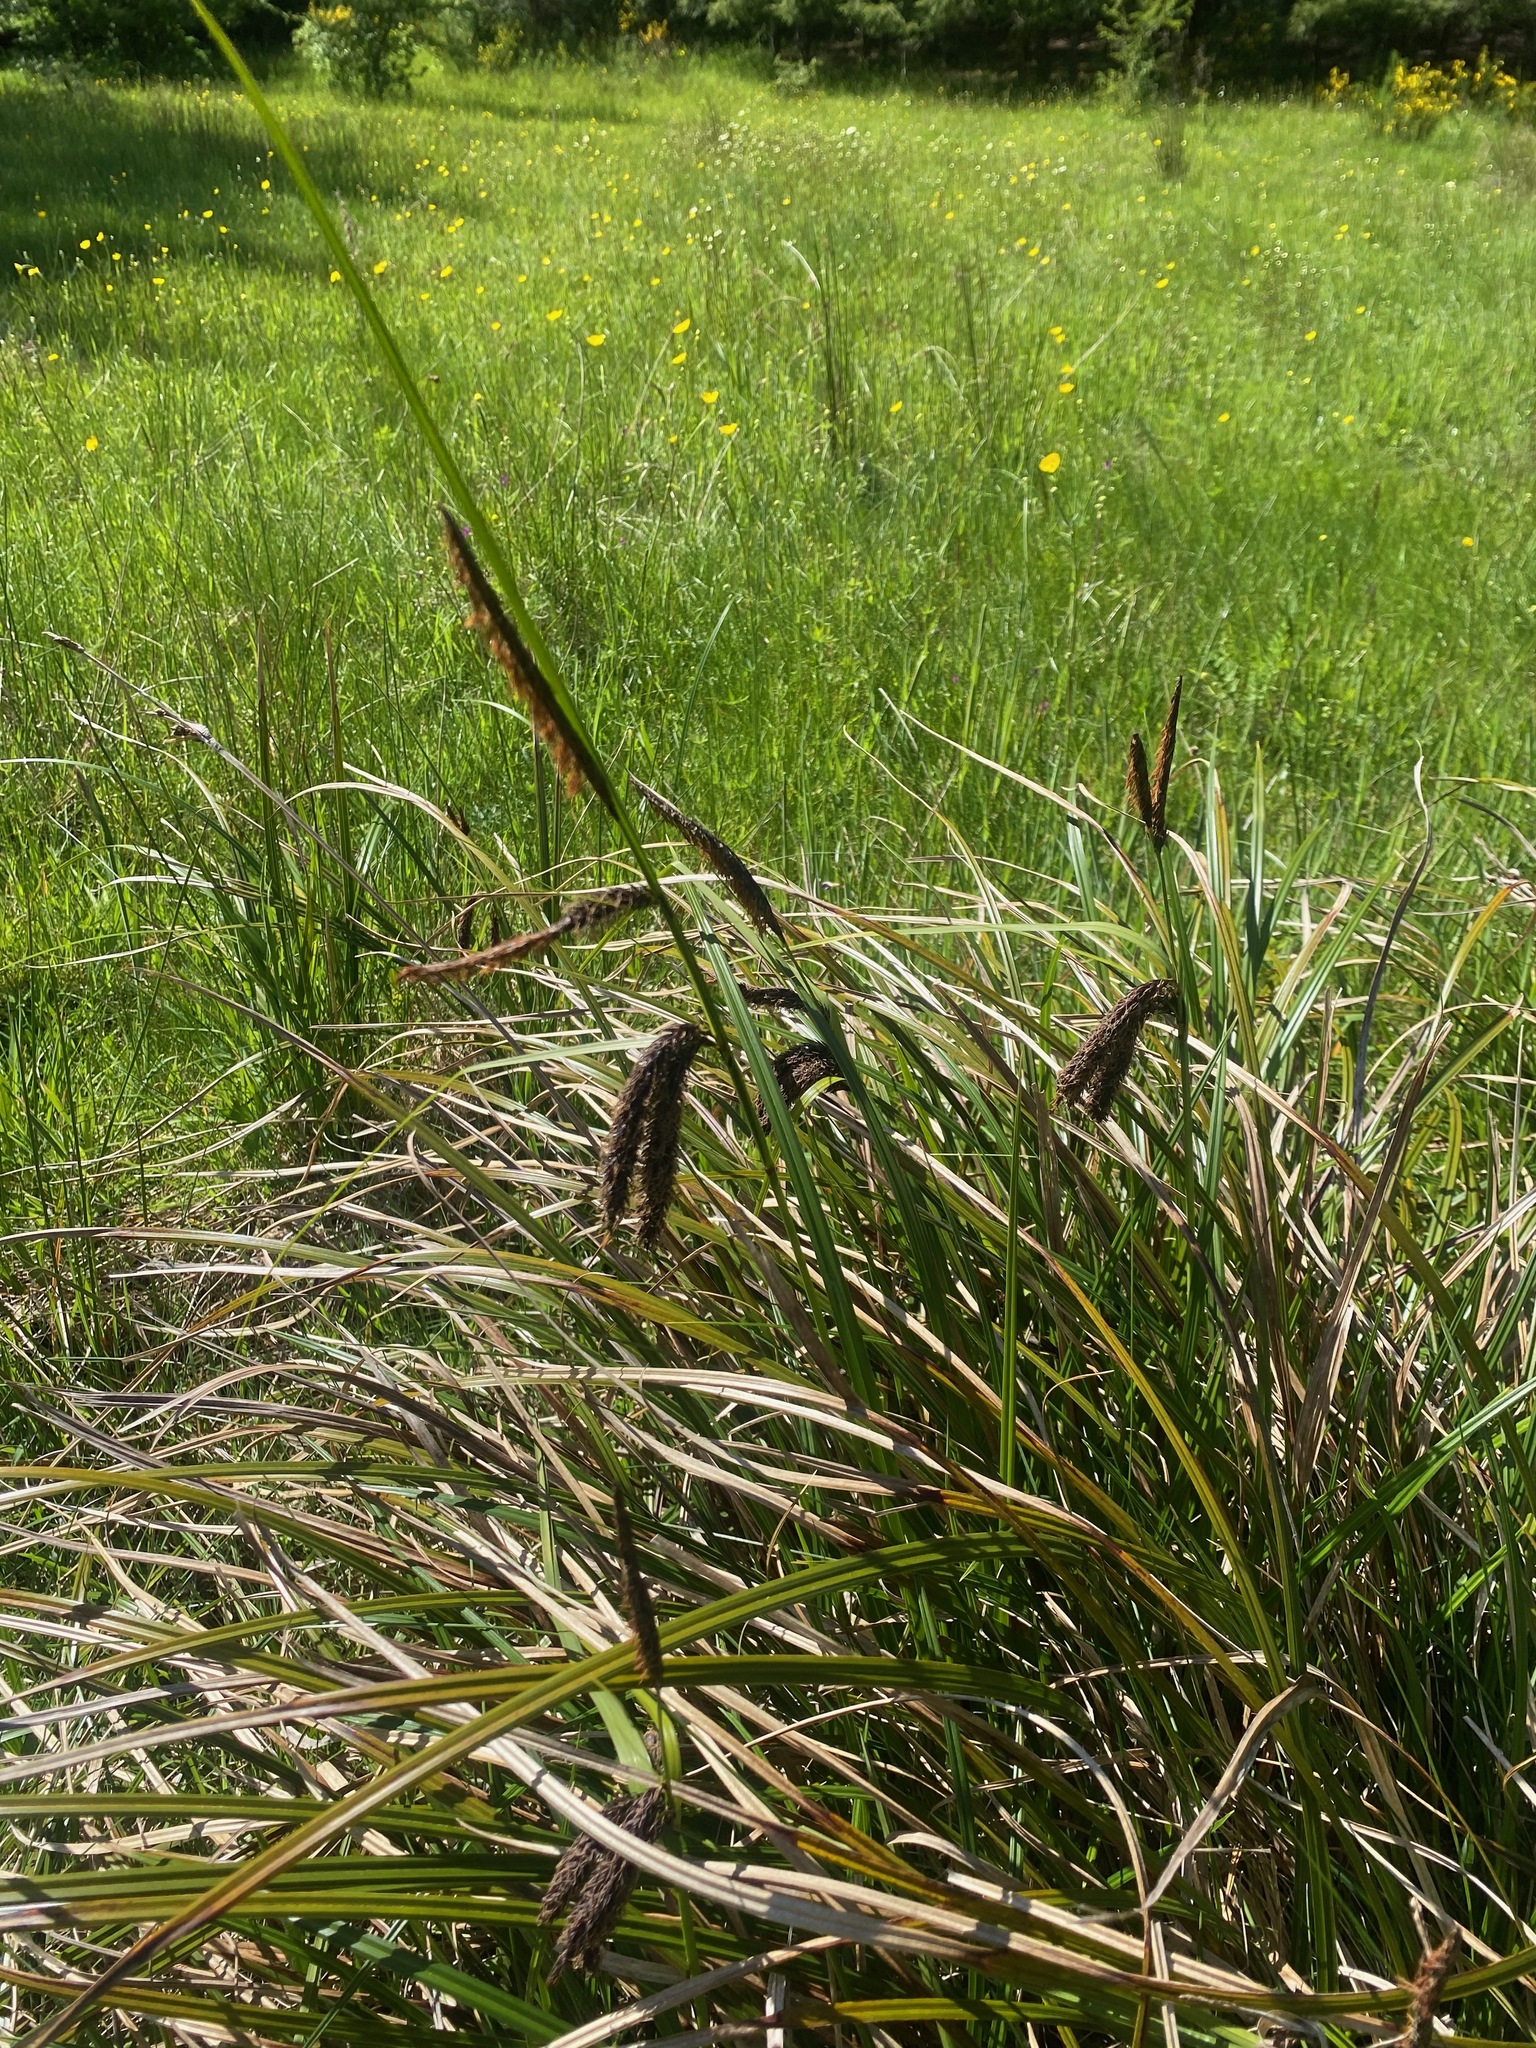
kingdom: Plantae
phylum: Tracheophyta
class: Liliopsida
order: Poales
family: Cyperaceae
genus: Carex
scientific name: Carex obnupta
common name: Slough sedge
